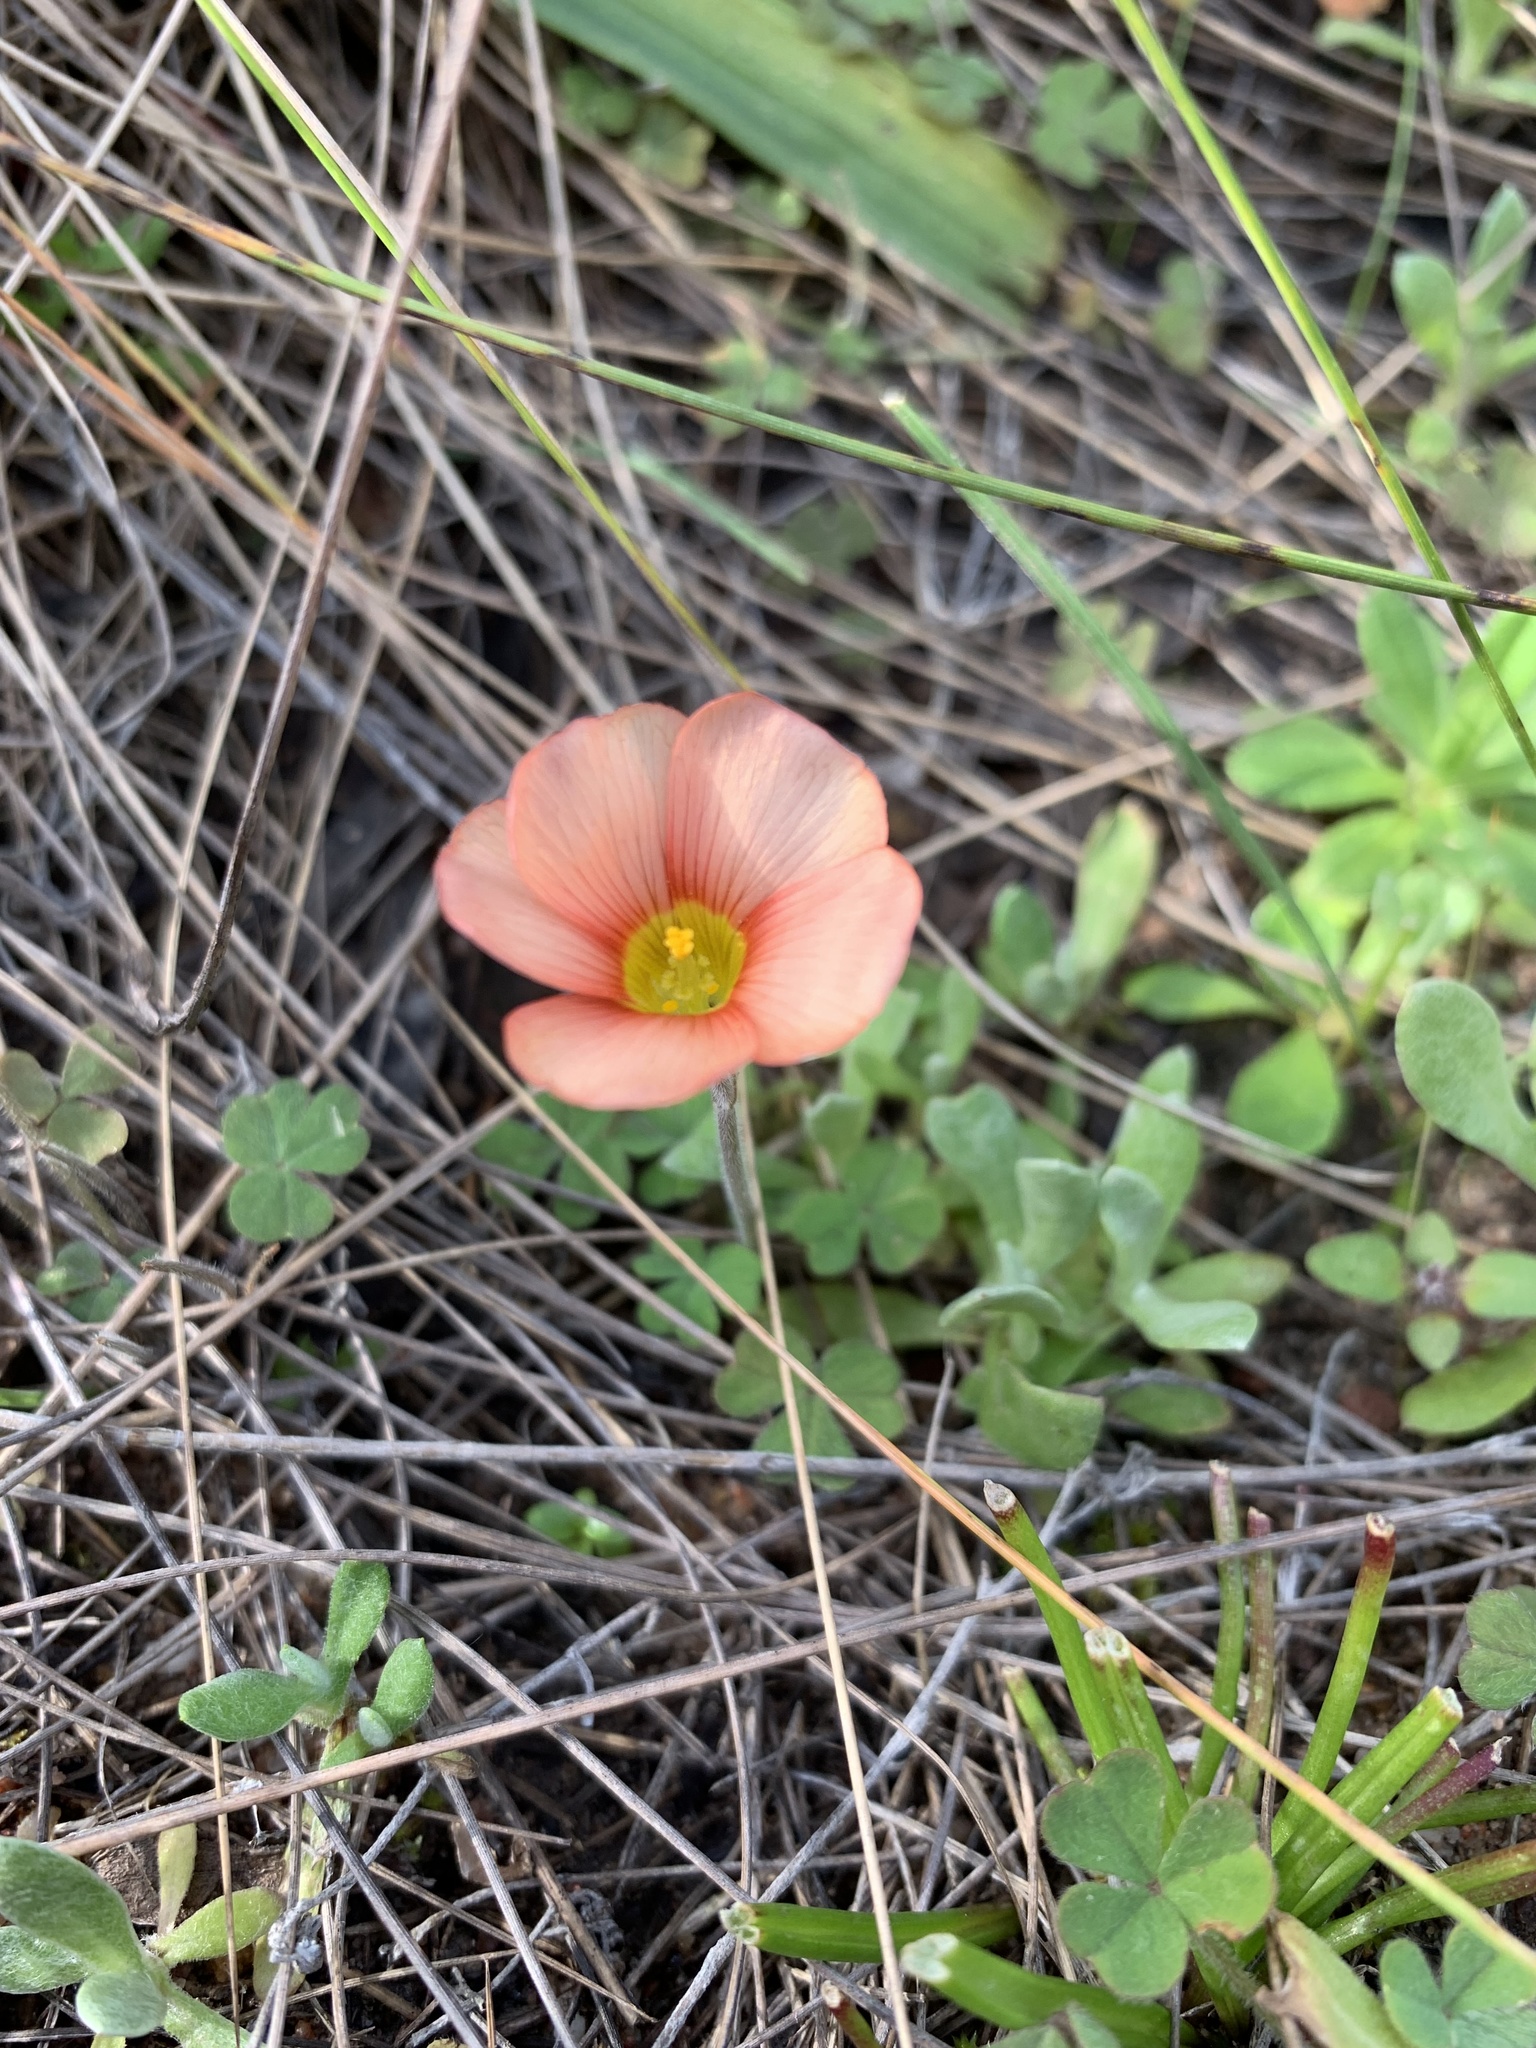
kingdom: Plantae
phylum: Tracheophyta
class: Magnoliopsida
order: Oxalidales
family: Oxalidaceae
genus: Oxalis
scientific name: Oxalis obtusa
